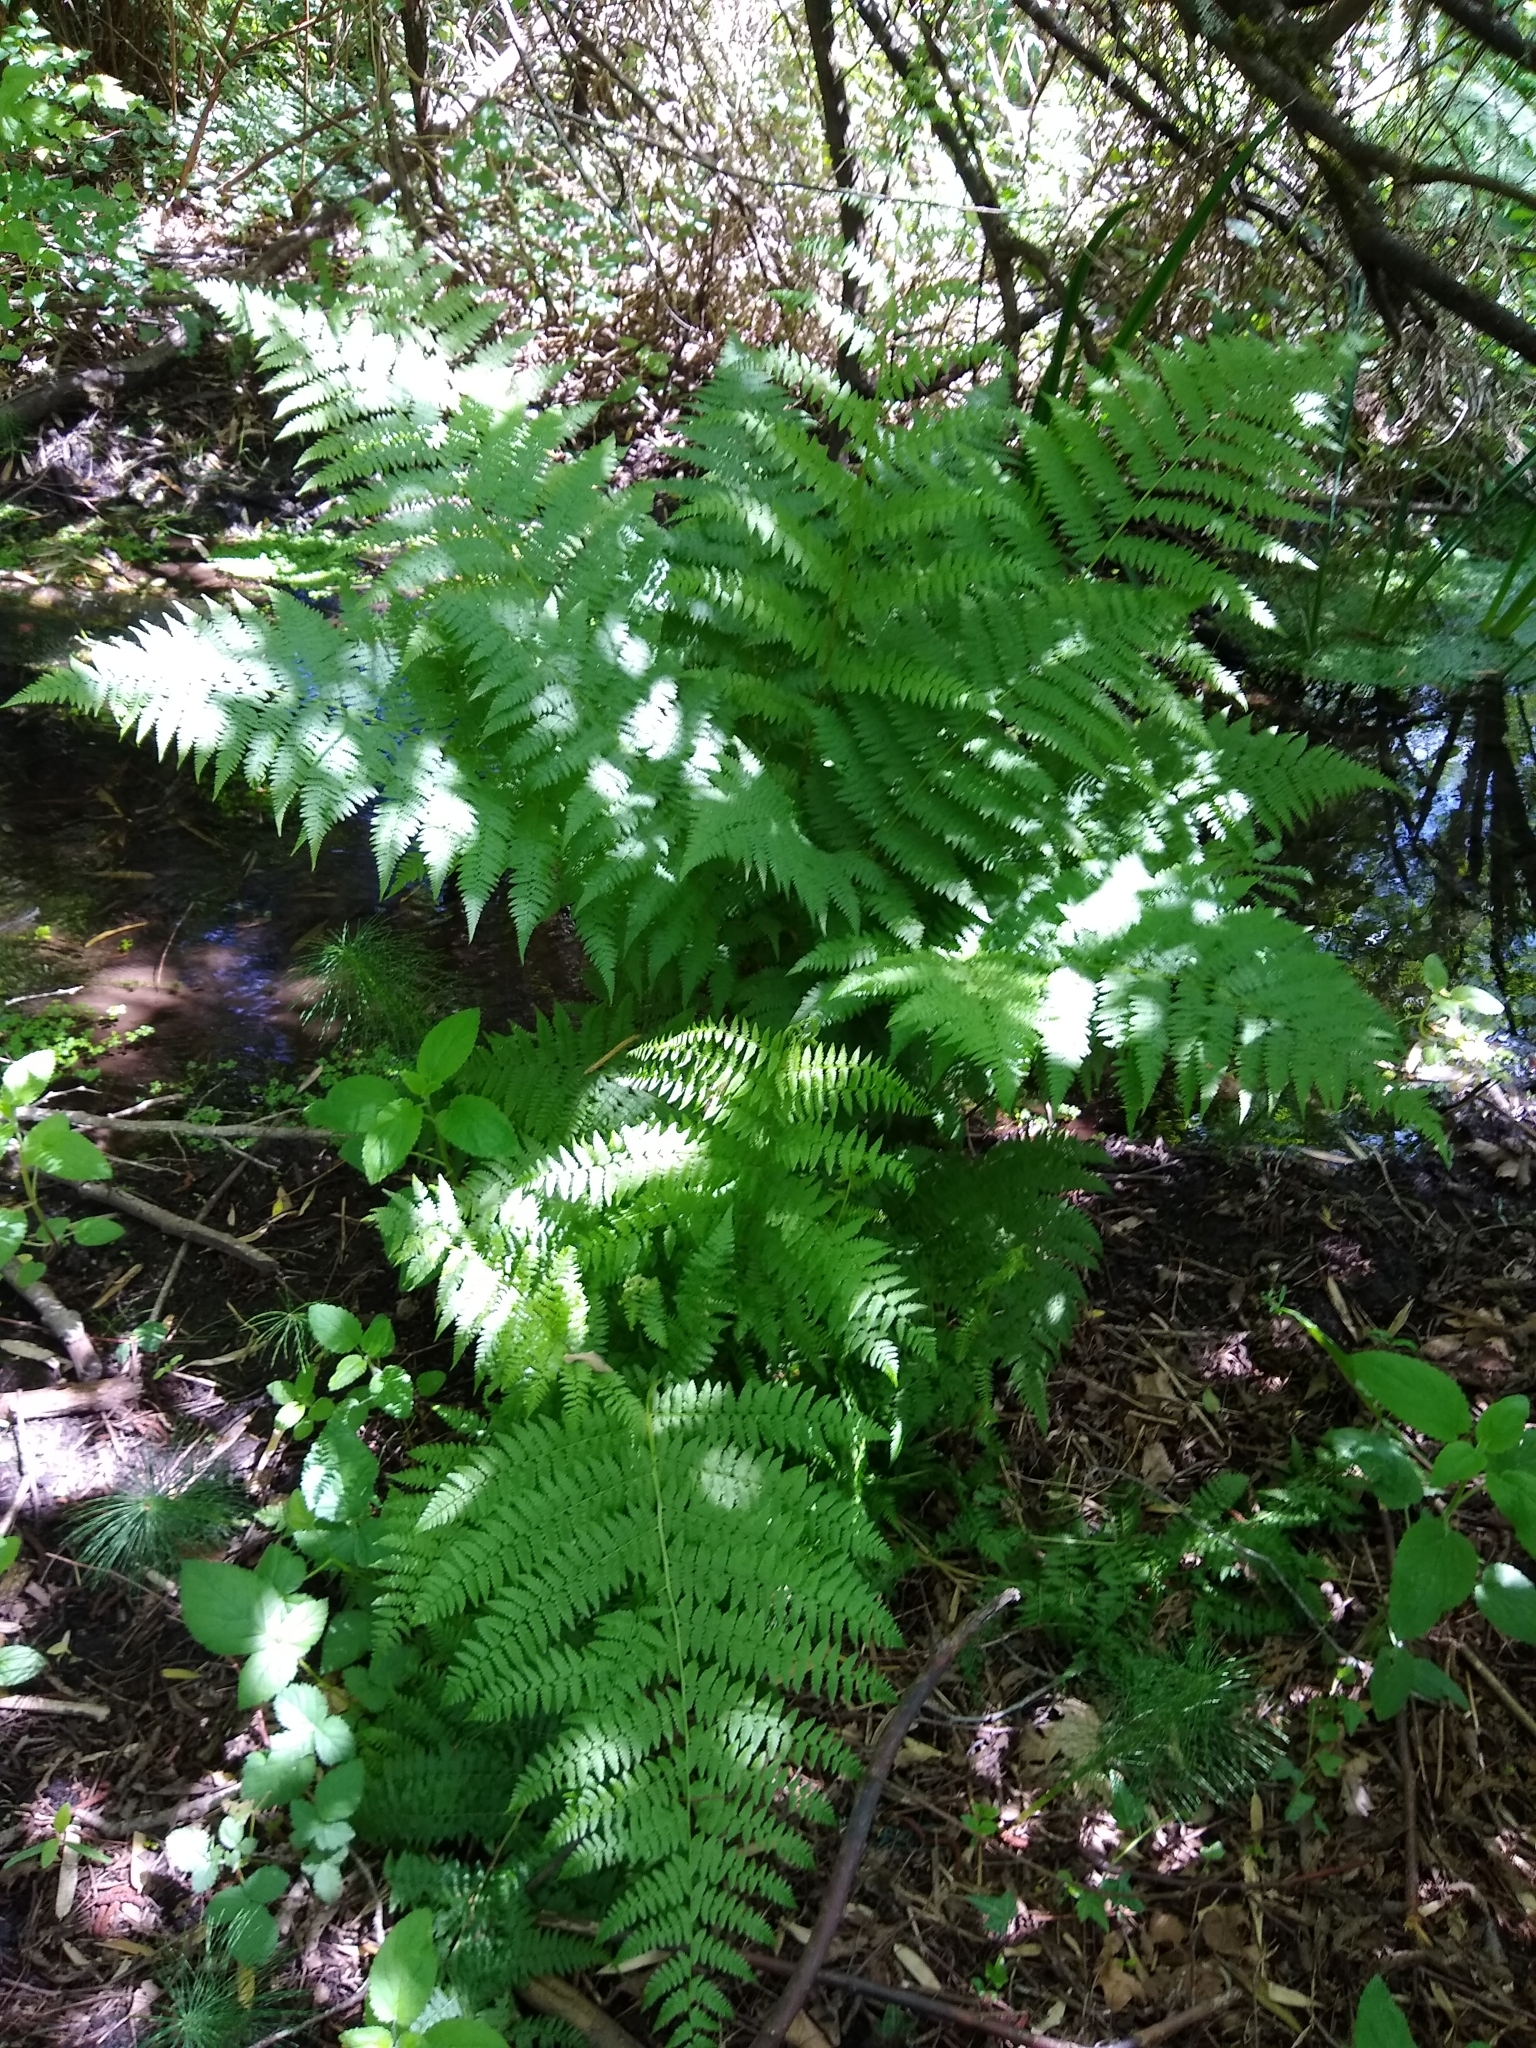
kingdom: Plantae
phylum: Tracheophyta
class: Polypodiopsida
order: Polypodiales
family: Athyriaceae
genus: Athyrium
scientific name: Athyrium filix-femina
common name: Lady fern
